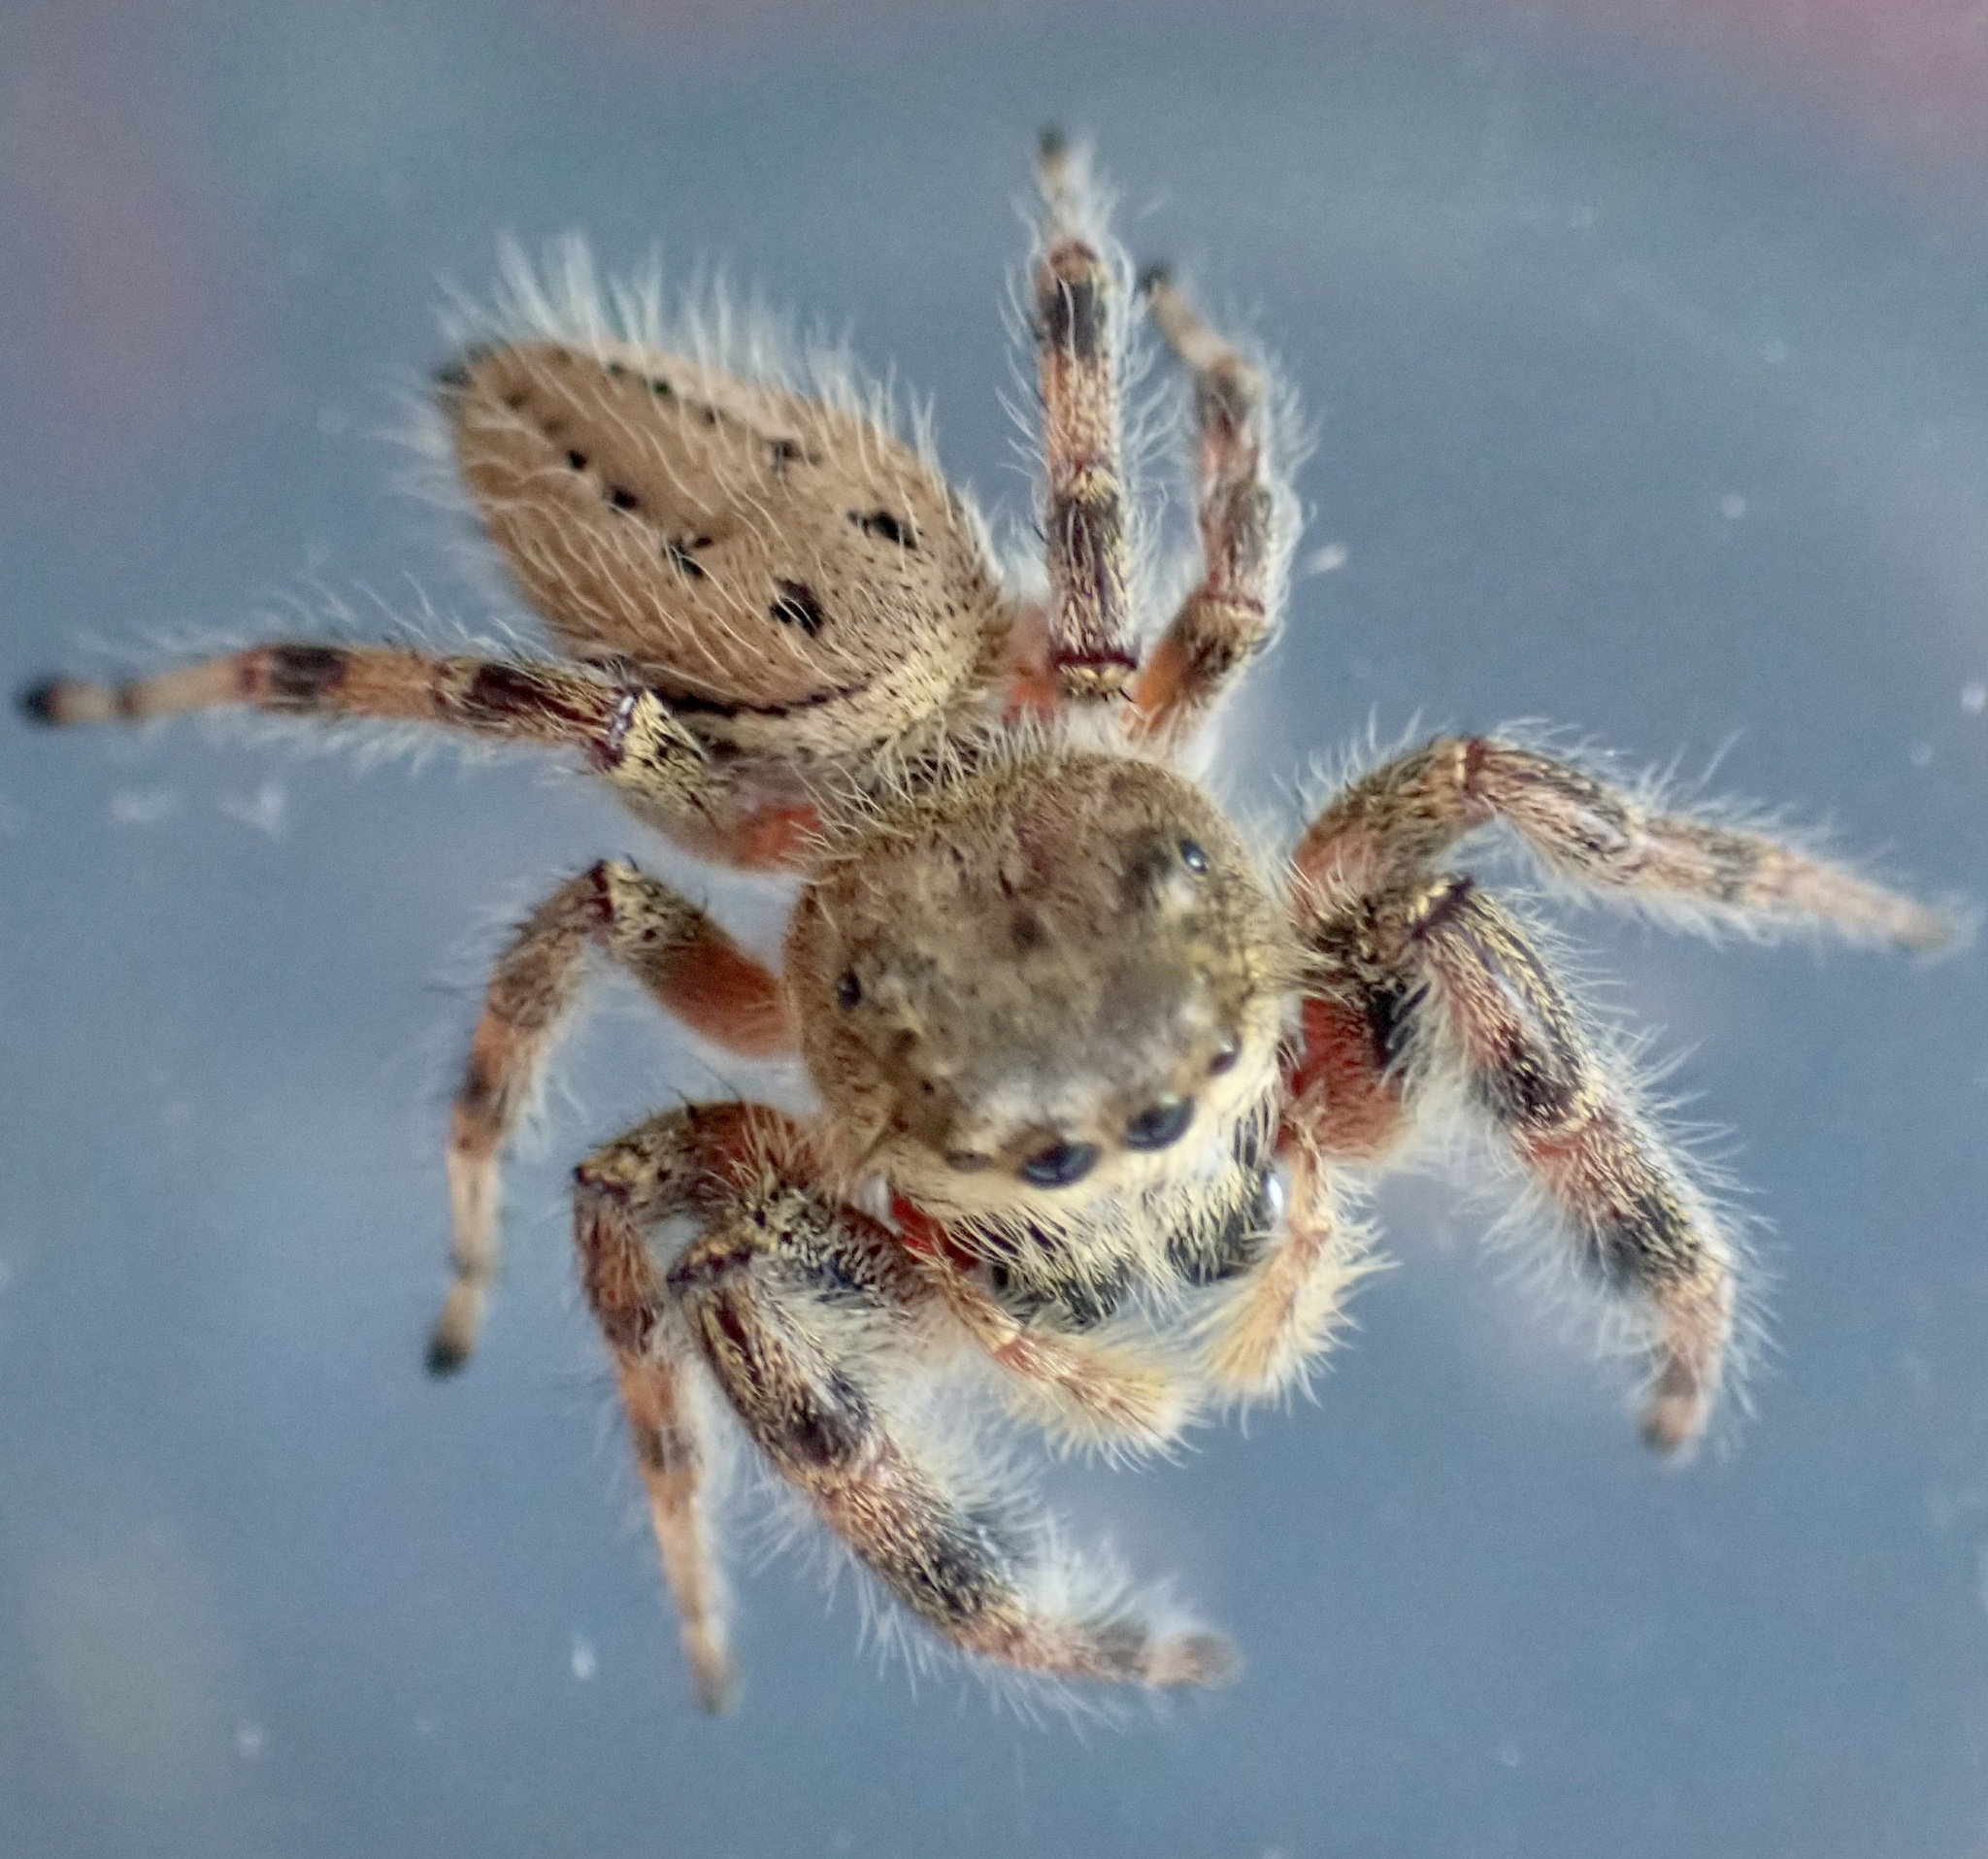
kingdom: Animalia
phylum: Arthropoda
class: Arachnida
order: Araneae
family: Salticidae
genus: Phidippus
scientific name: Phidippus clarus
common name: Brilliant jumping spider
